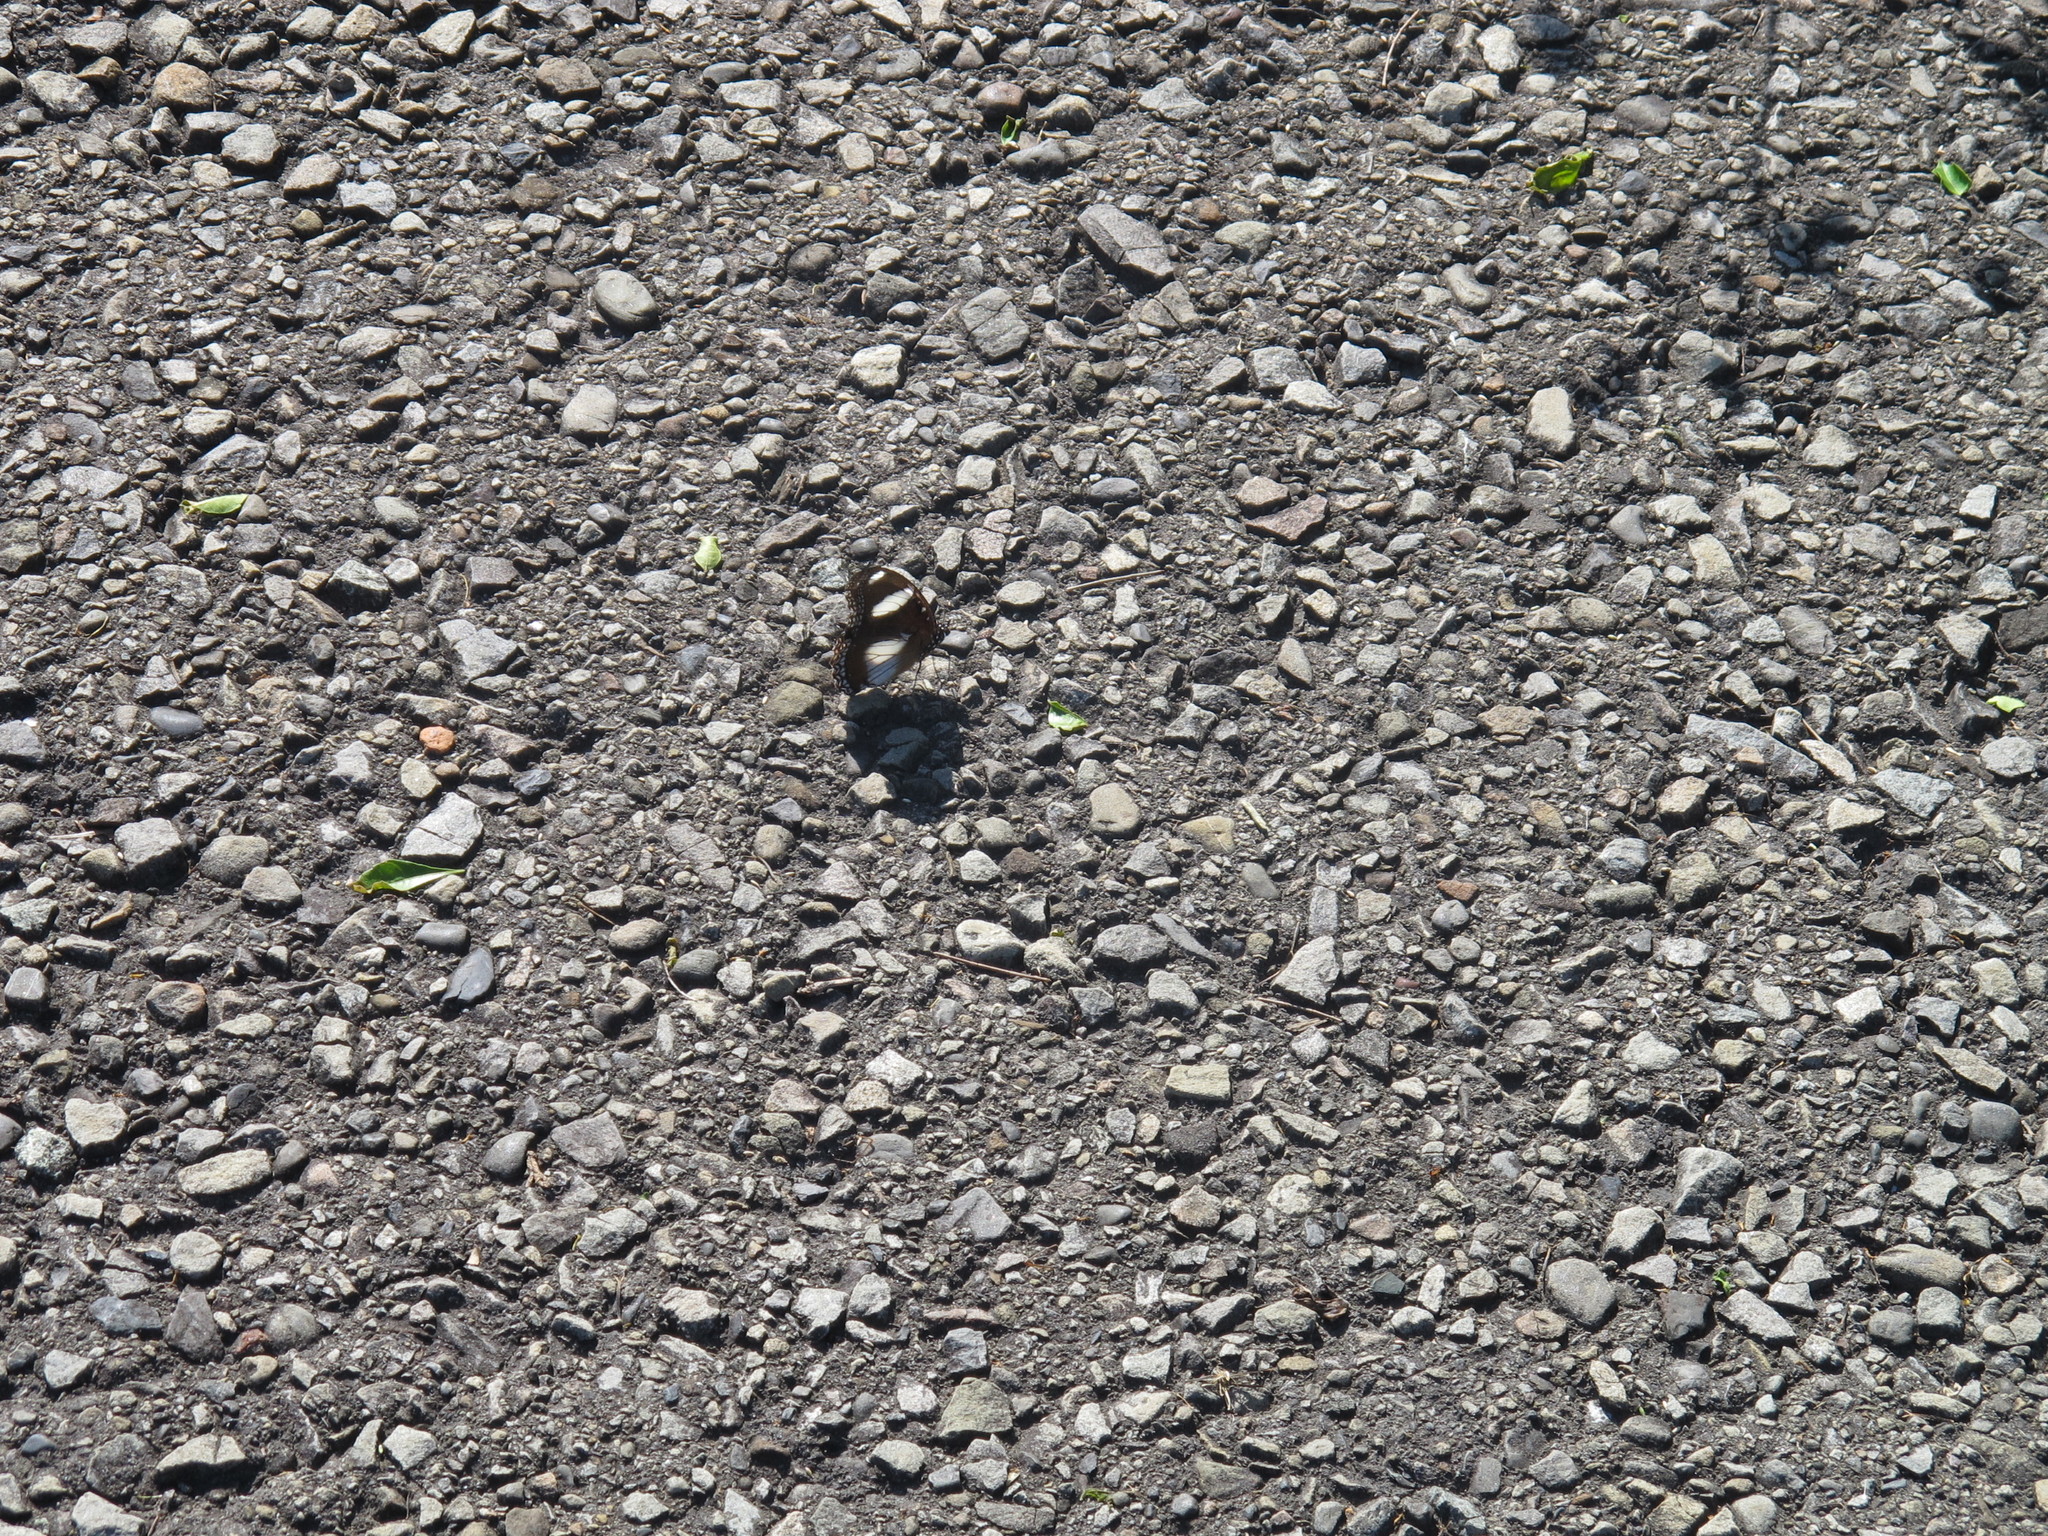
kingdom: Animalia
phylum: Arthropoda
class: Insecta
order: Lepidoptera
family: Nymphalidae
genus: Hypolimnas
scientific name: Hypolimnas misippus
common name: False plain tiger
